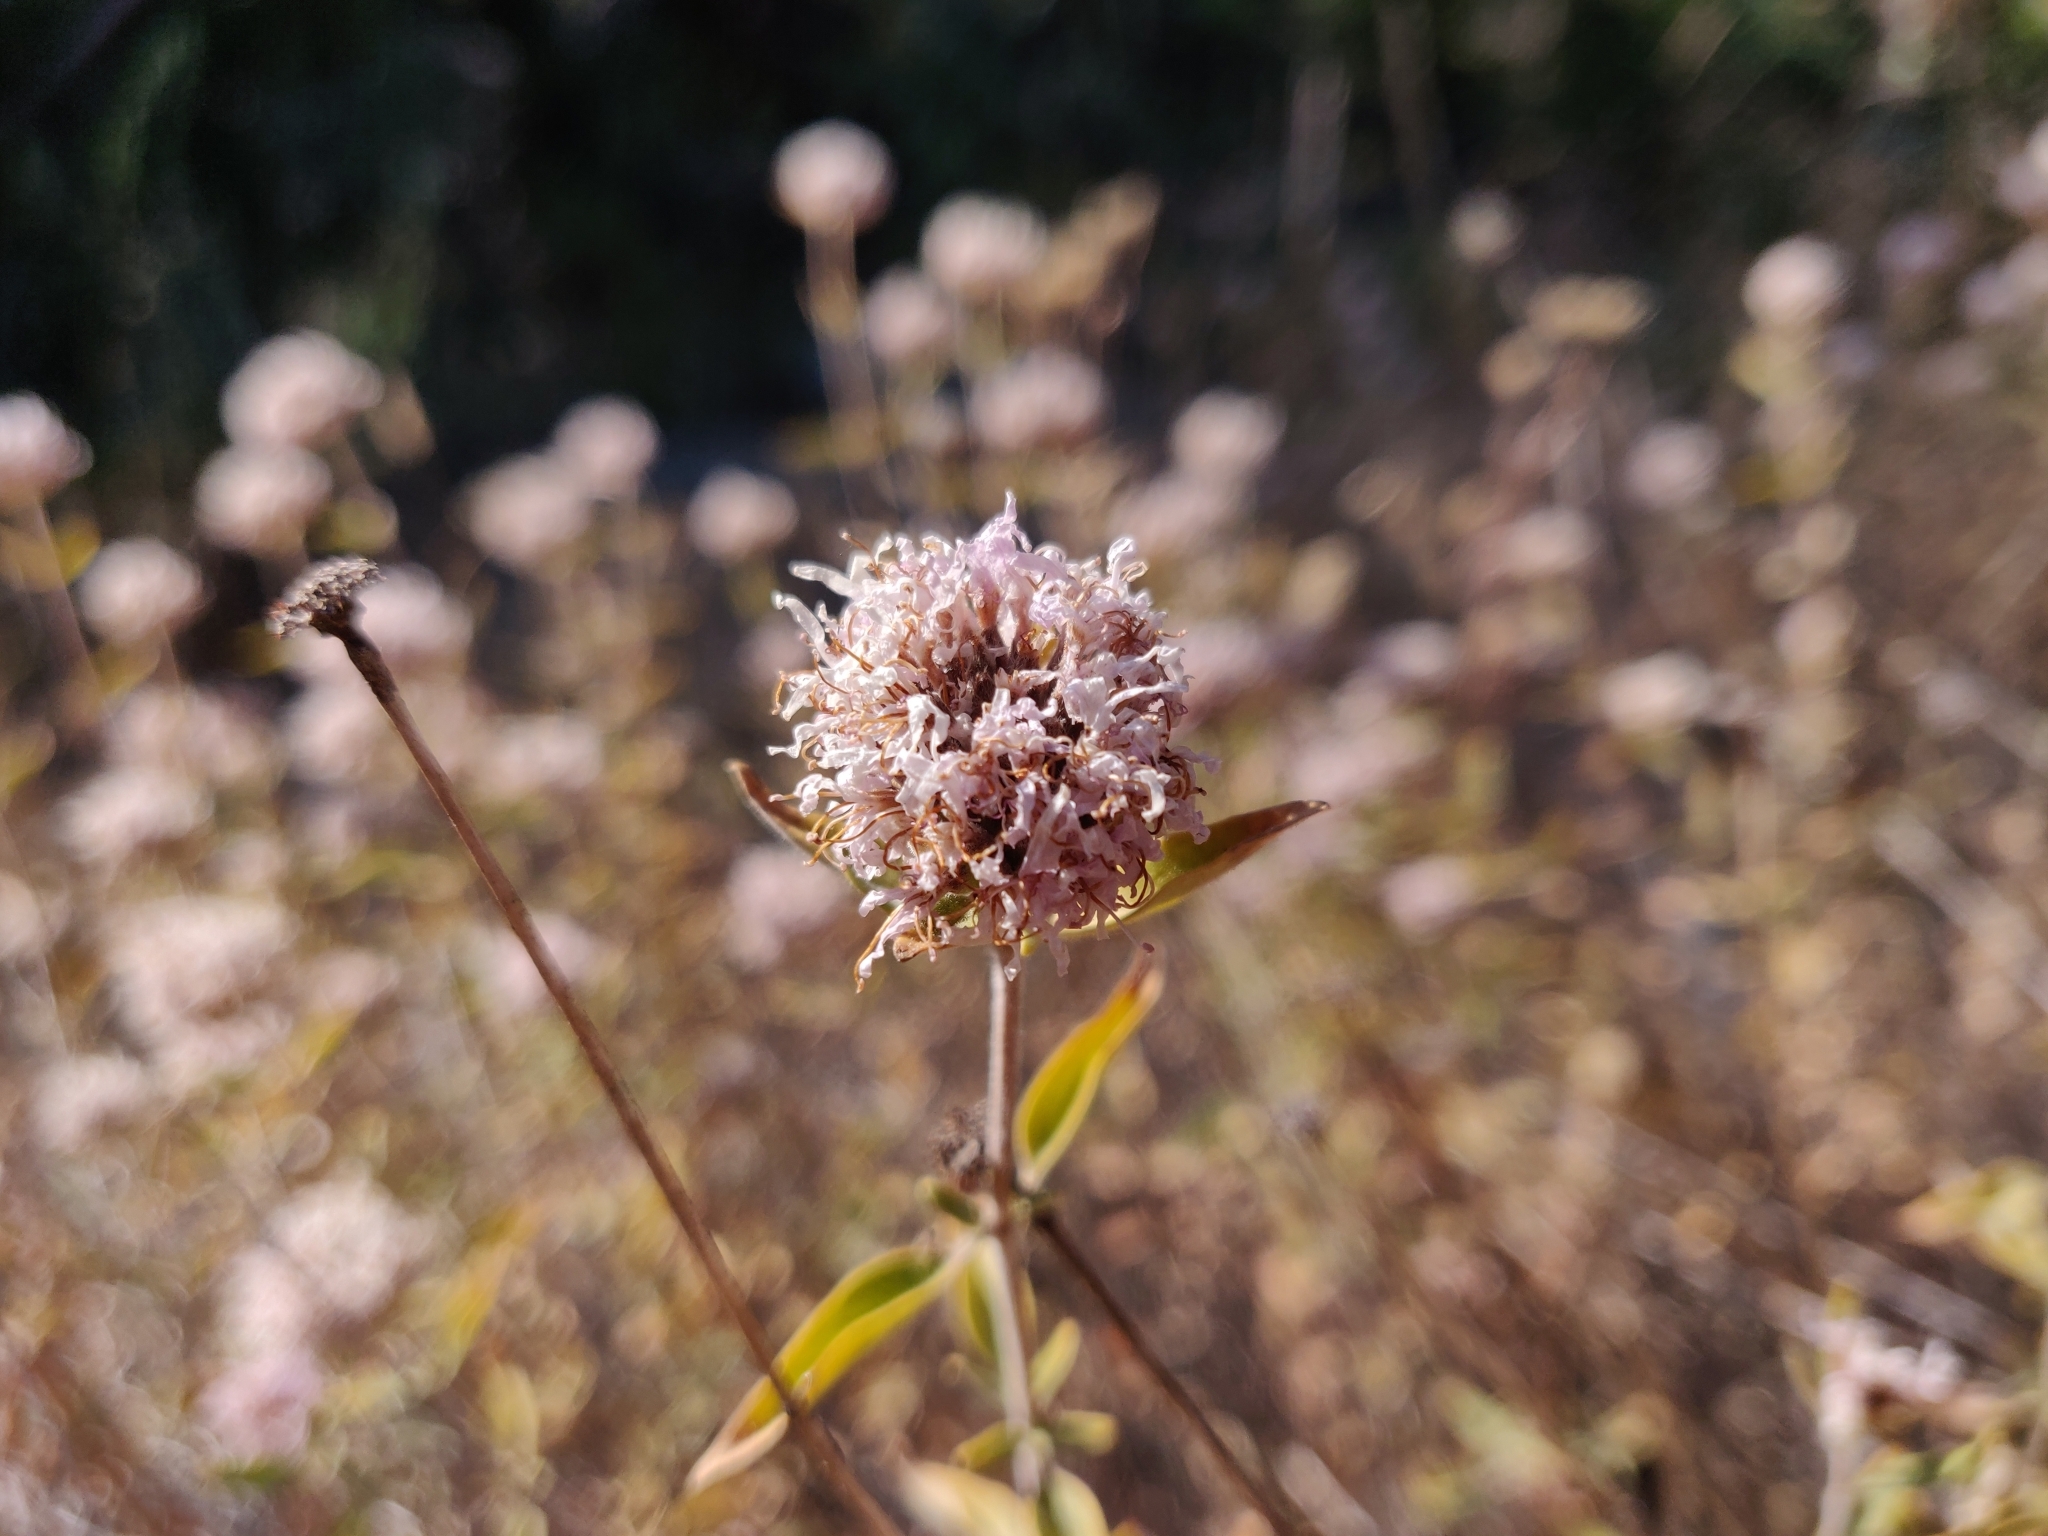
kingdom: Plantae
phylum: Tracheophyta
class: Magnoliopsida
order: Lamiales
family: Lamiaceae
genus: Monardella
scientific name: Monardella odoratissima
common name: Pacific monardella
